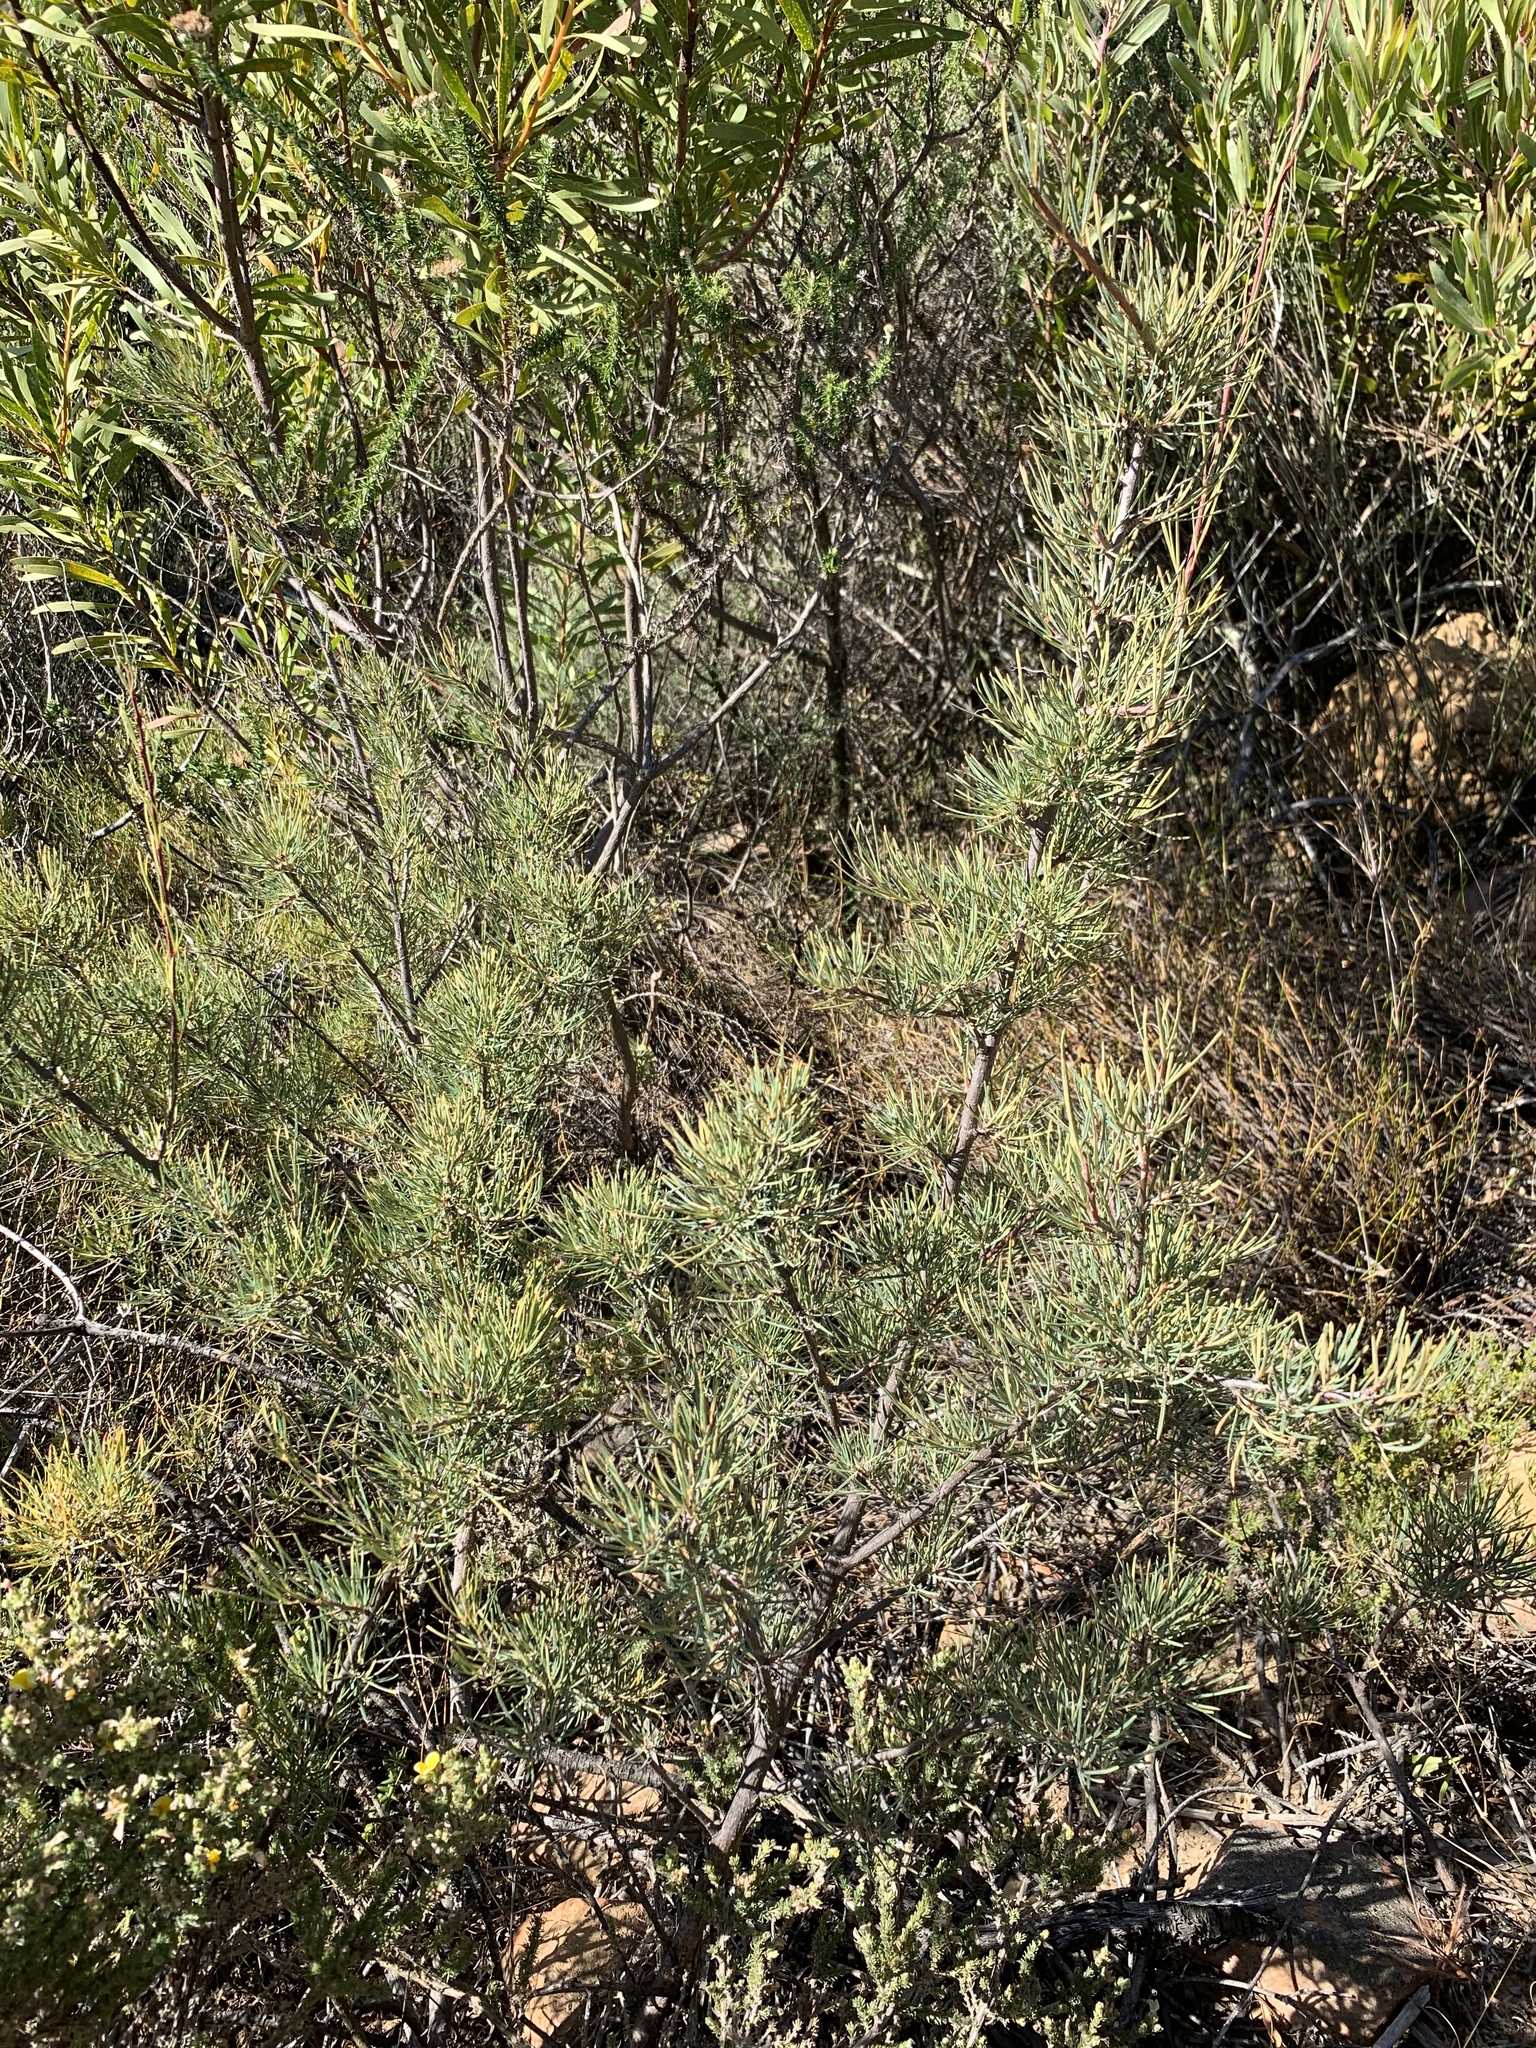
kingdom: Plantae
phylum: Tracheophyta
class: Magnoliopsida
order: Sapindales
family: Anacardiaceae
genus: Searsia
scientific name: Searsia rosmarinifolia
